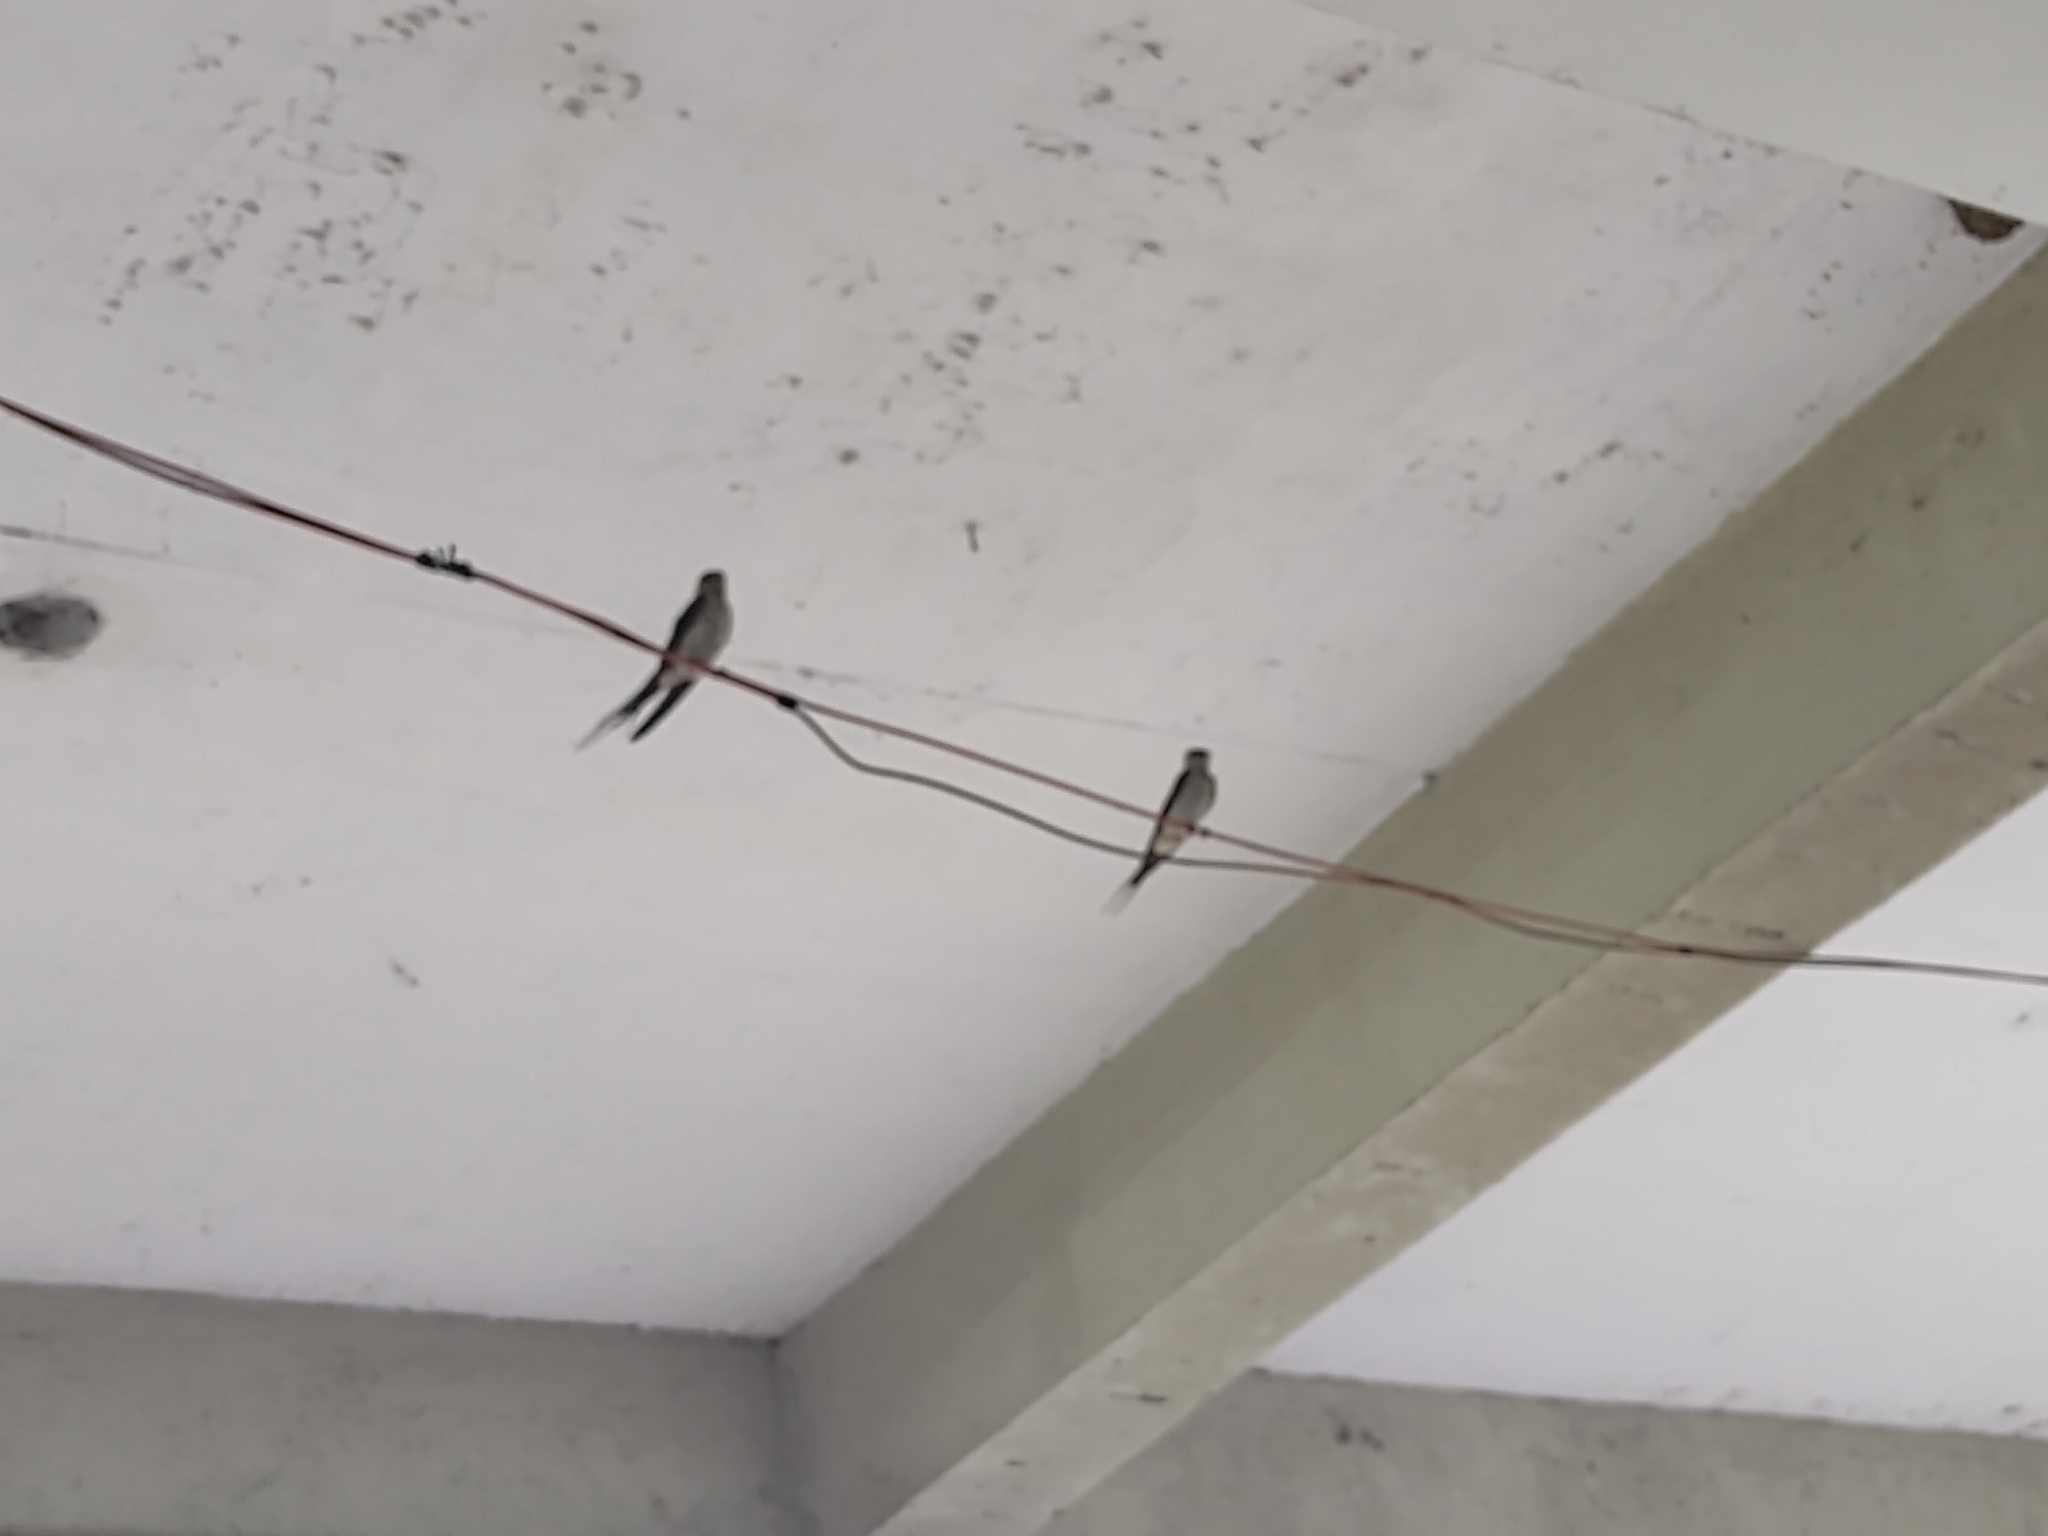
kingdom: Animalia
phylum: Chordata
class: Aves
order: Passeriformes
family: Hirundinidae
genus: Cecropis
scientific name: Cecropis striolata
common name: Striated swallow
